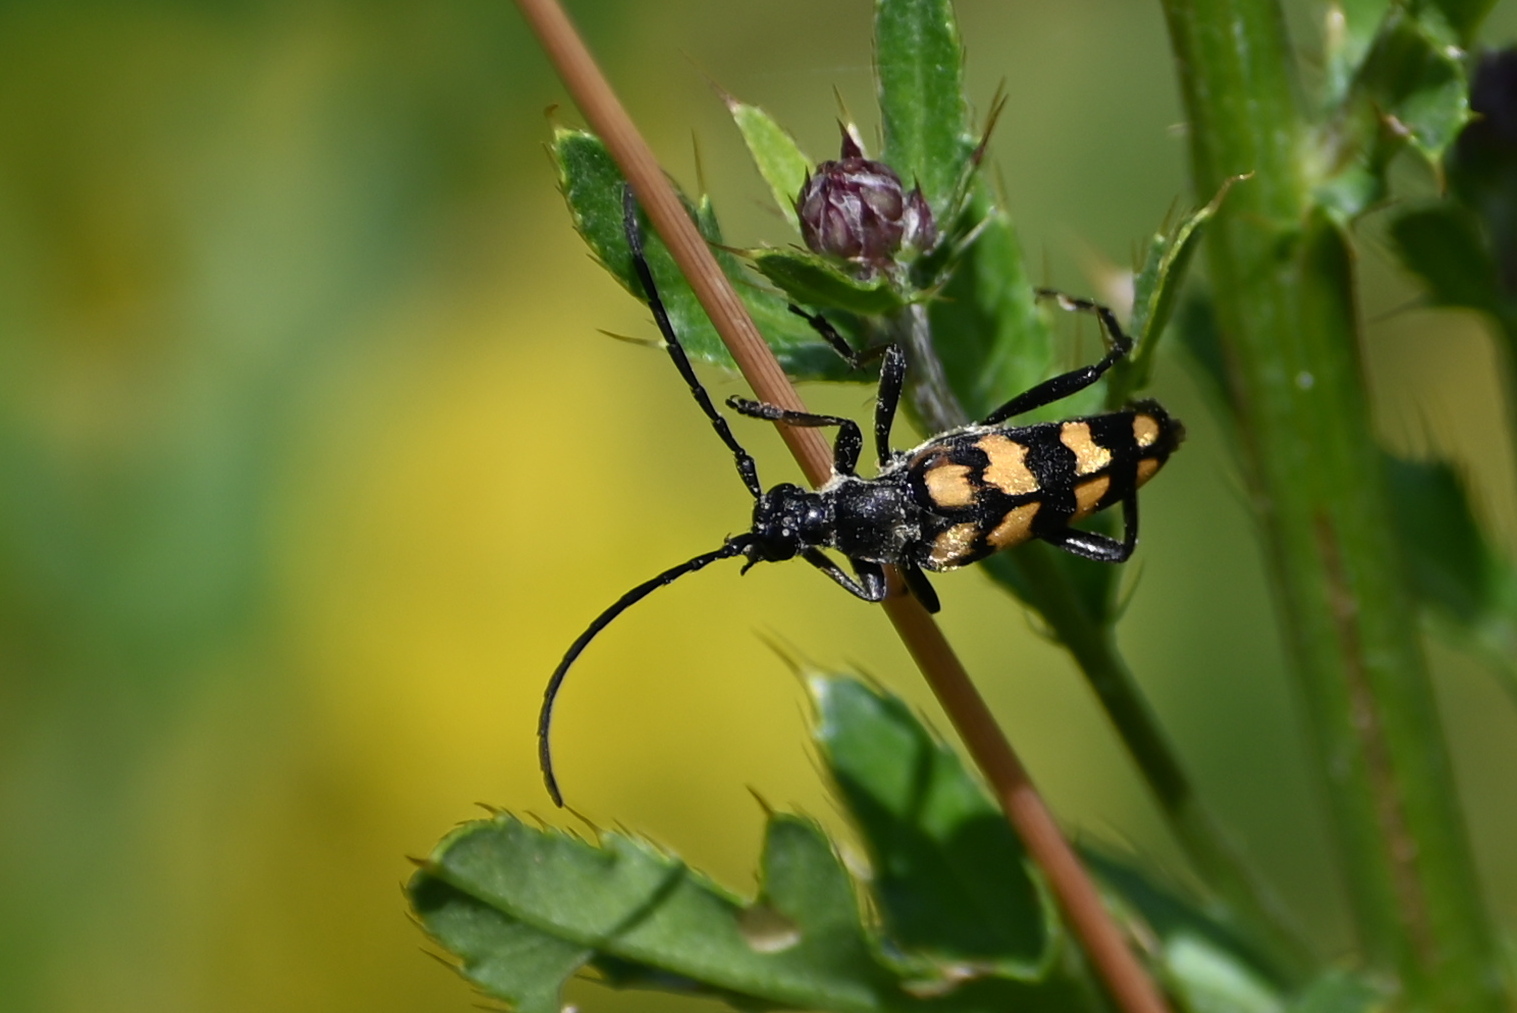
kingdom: Animalia
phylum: Arthropoda
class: Insecta
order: Coleoptera
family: Cerambycidae
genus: Leptura
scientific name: Leptura quadrifasciata
